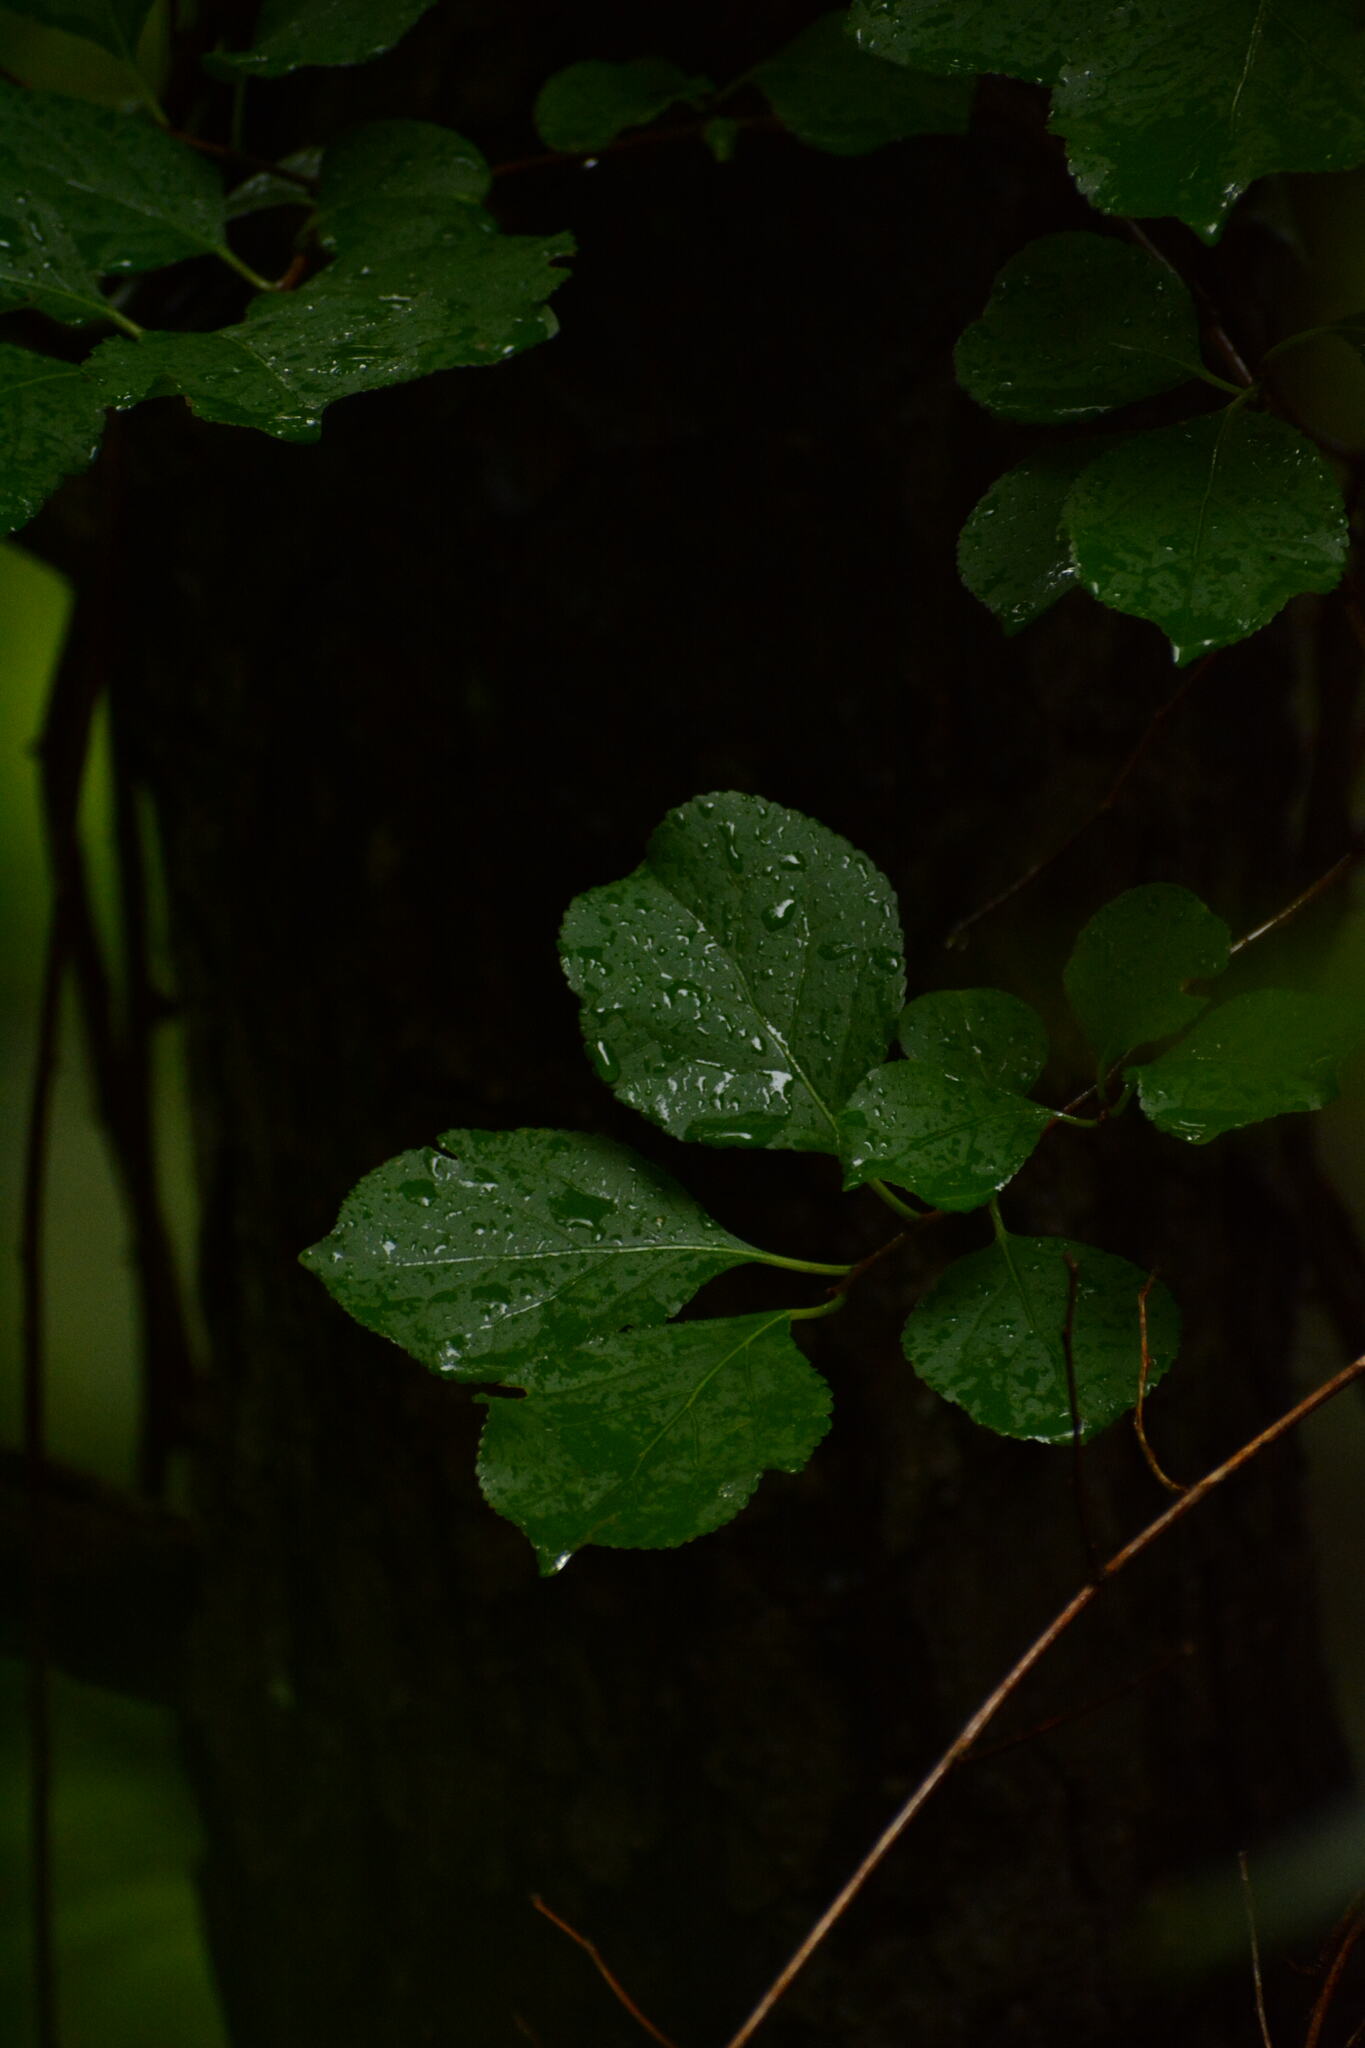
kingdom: Plantae
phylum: Tracheophyta
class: Magnoliopsida
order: Celastrales
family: Celastraceae
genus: Celastrus
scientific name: Celastrus orbiculatus
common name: Oriental bittersweet
